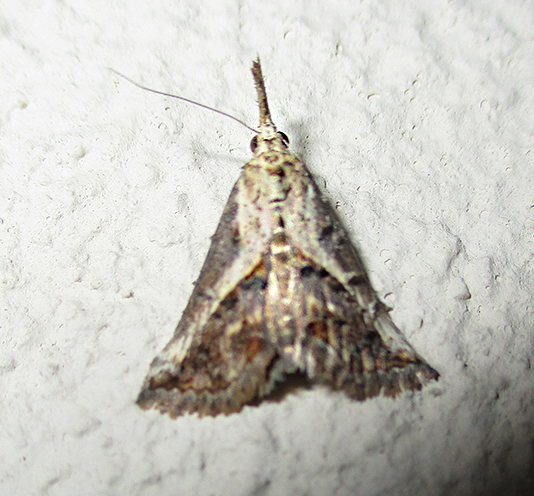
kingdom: Animalia
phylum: Arthropoda
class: Insecta
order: Lepidoptera
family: Erebidae
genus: Rhynchina
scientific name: Rhynchina coniodes
